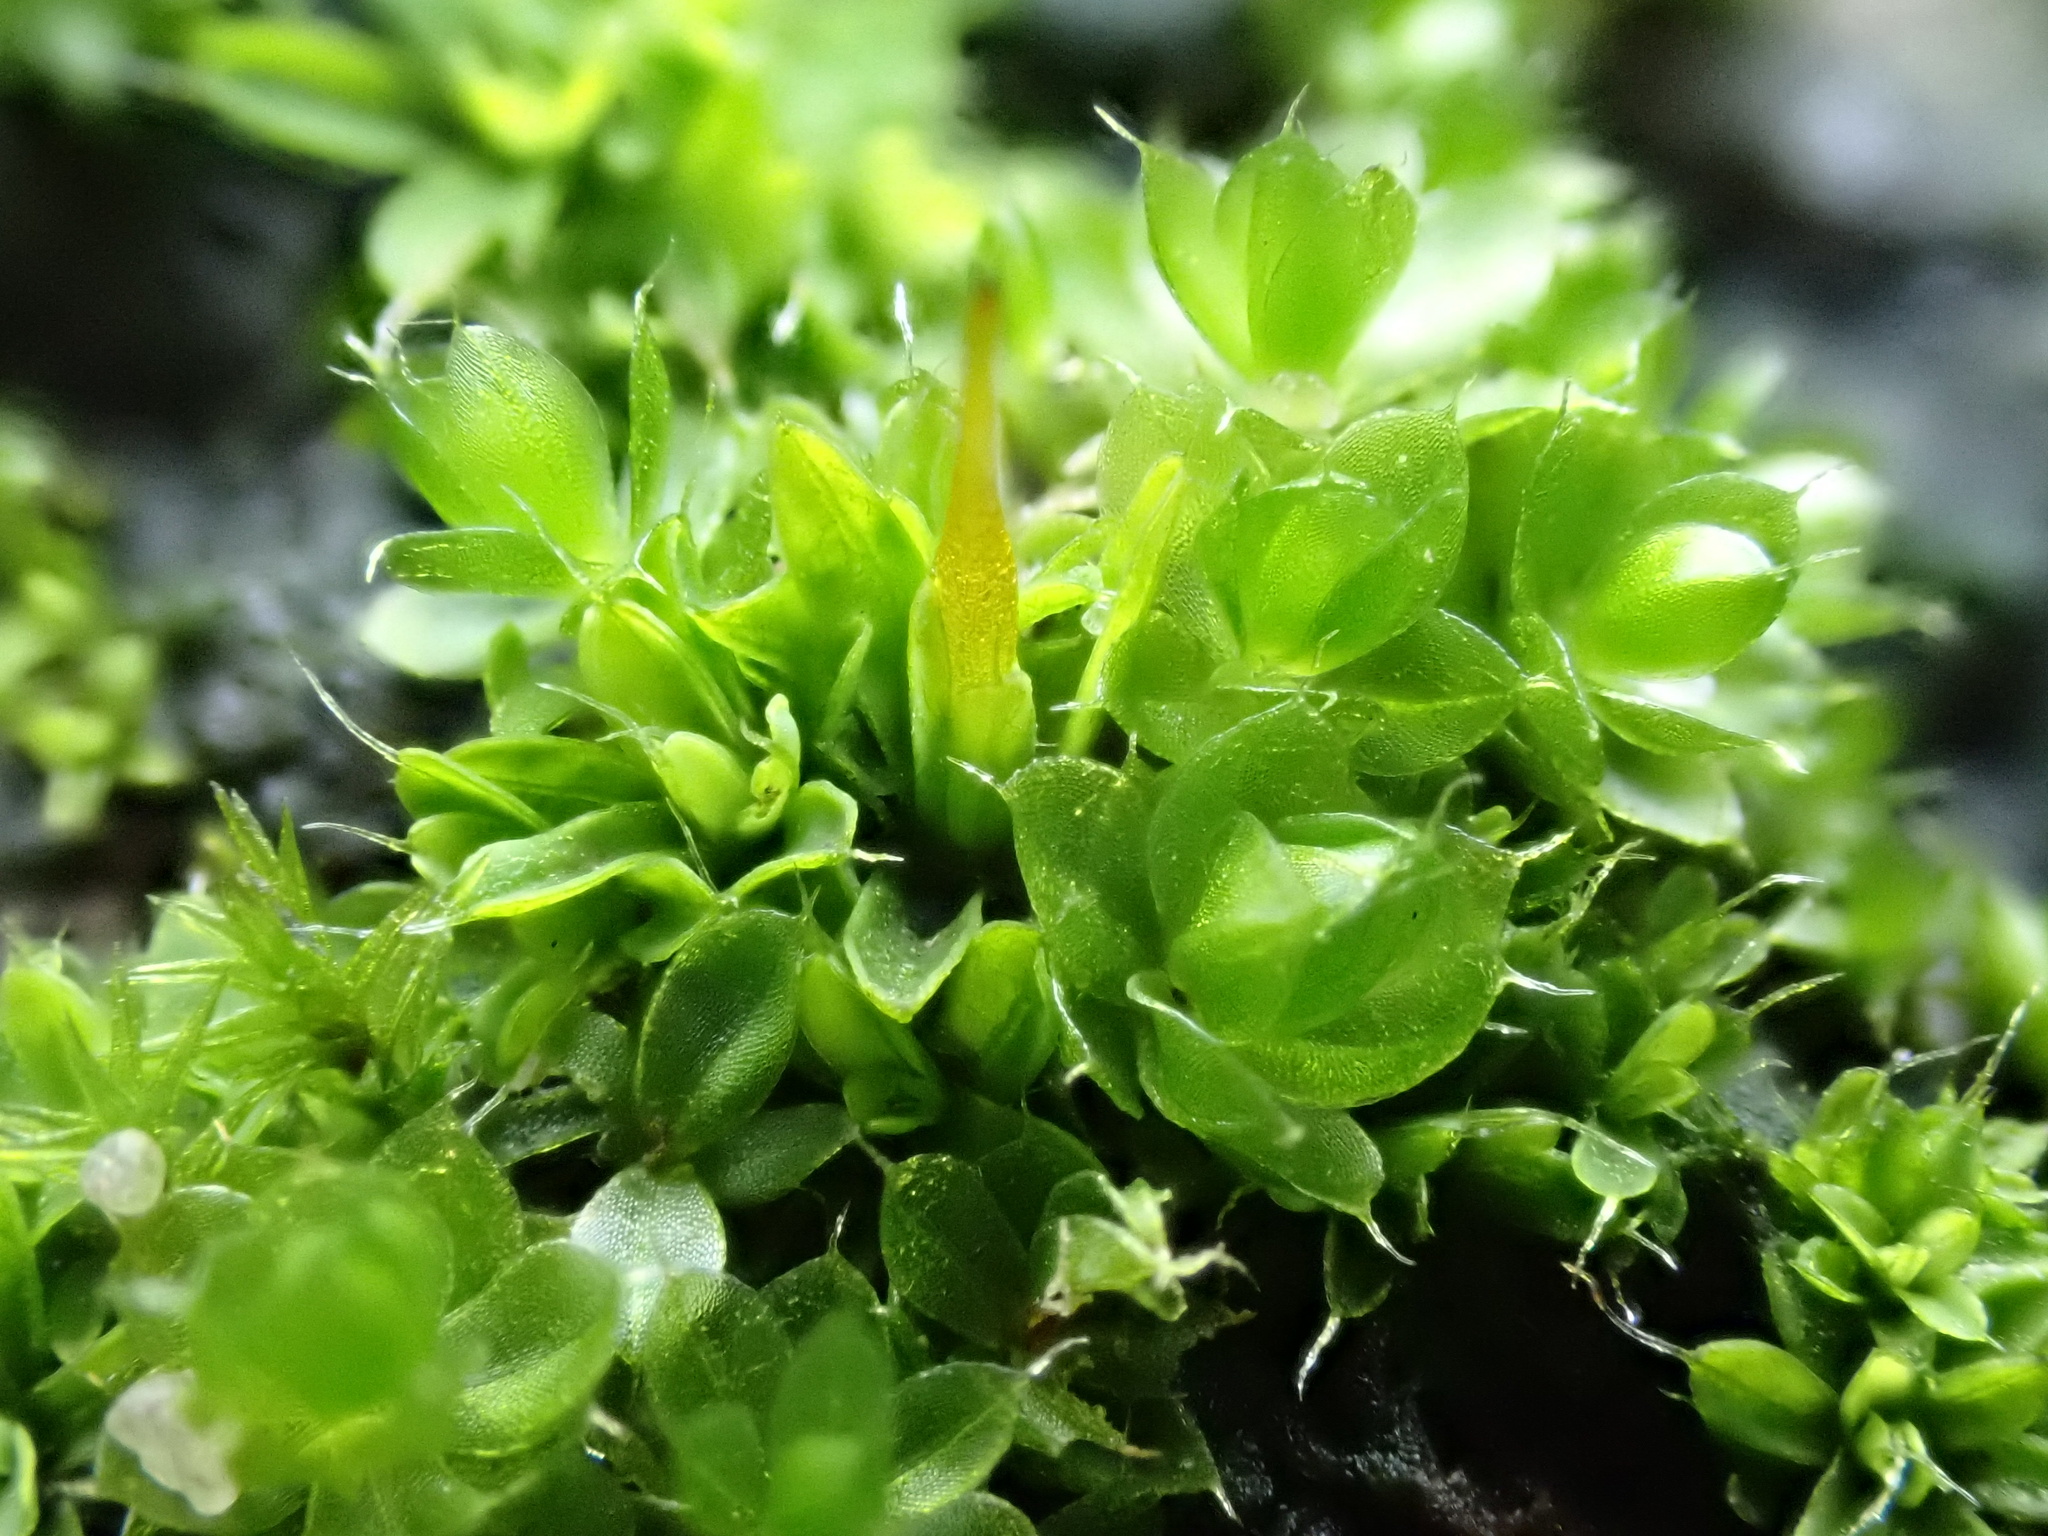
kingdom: Plantae
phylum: Bryophyta
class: Bryopsida
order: Bryales
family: Bryaceae
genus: Rosulabryum
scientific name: Rosulabryum capillare
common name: Capillary thread-moss
